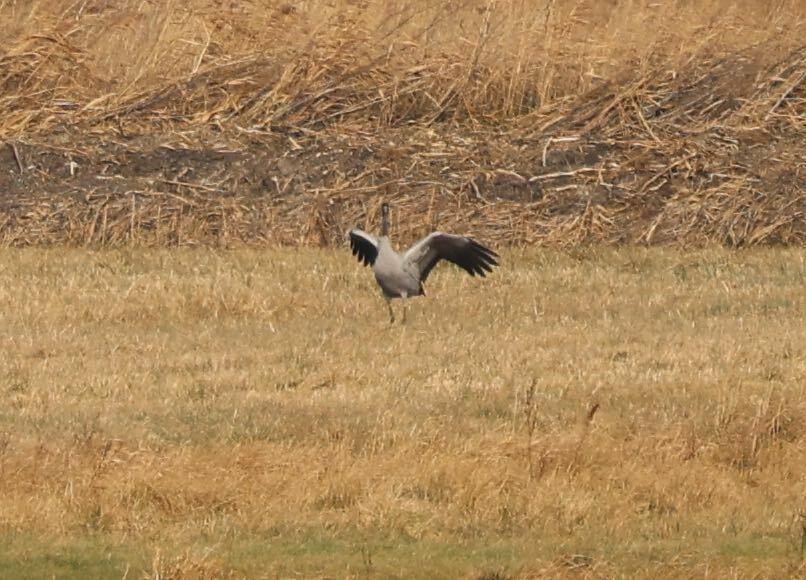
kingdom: Animalia
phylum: Chordata
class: Aves
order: Gruiformes
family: Gruidae
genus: Grus
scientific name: Grus grus
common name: Common crane
